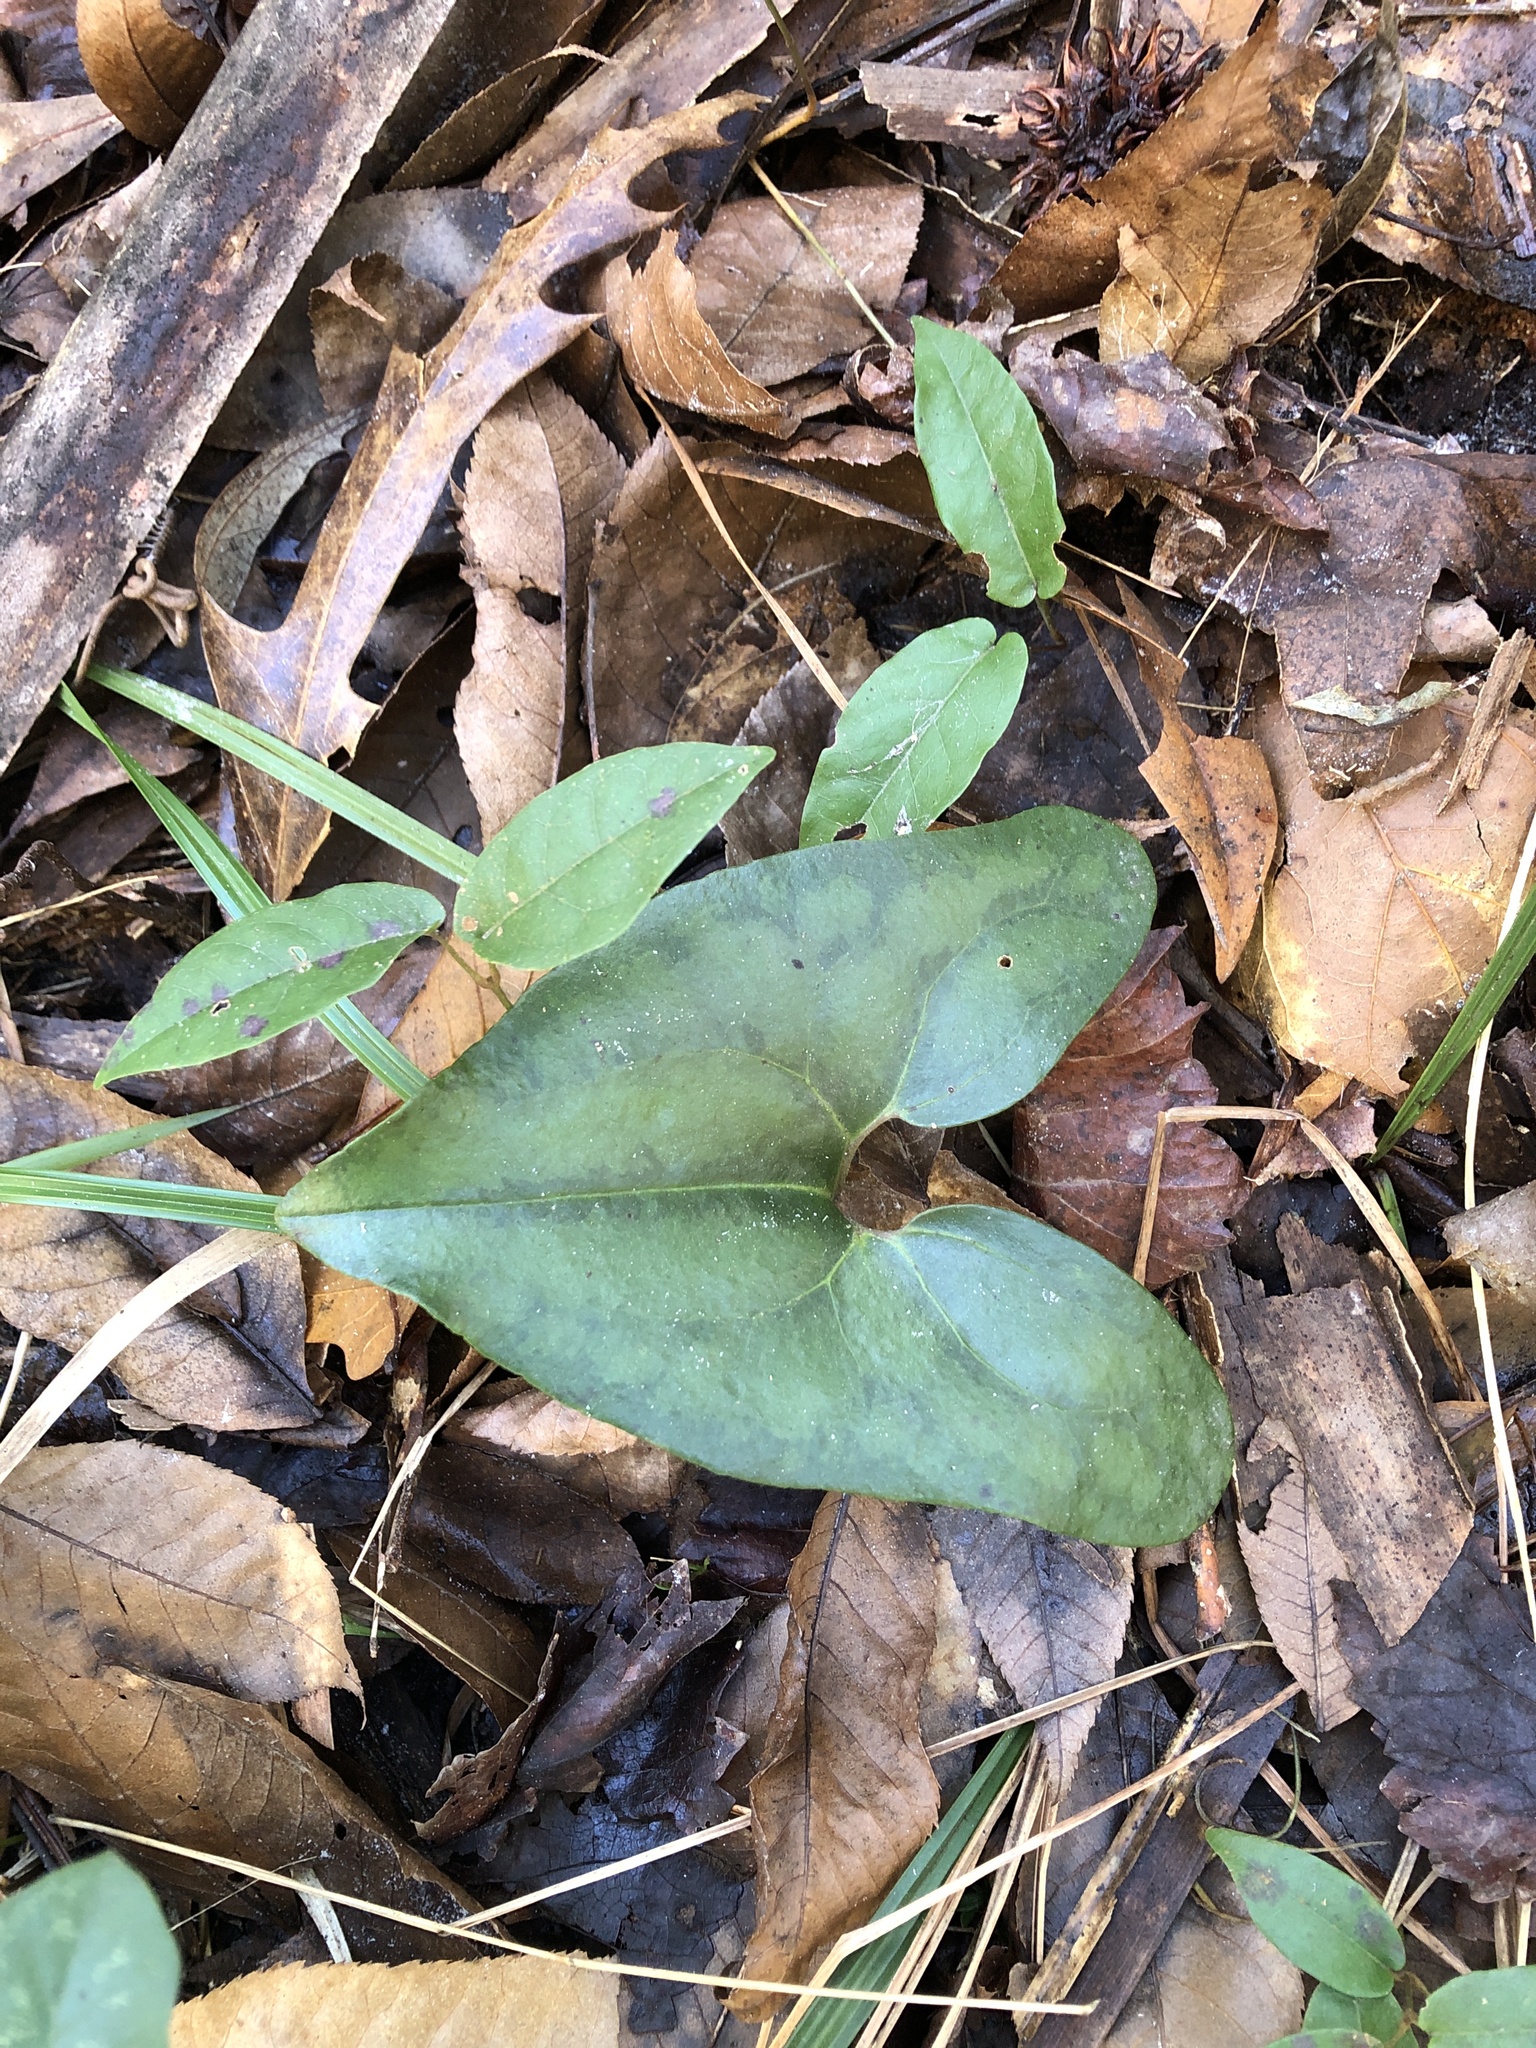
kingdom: Plantae
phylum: Tracheophyta
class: Magnoliopsida
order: Piperales
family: Aristolochiaceae
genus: Hexastylis
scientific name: Hexastylis arifolia
